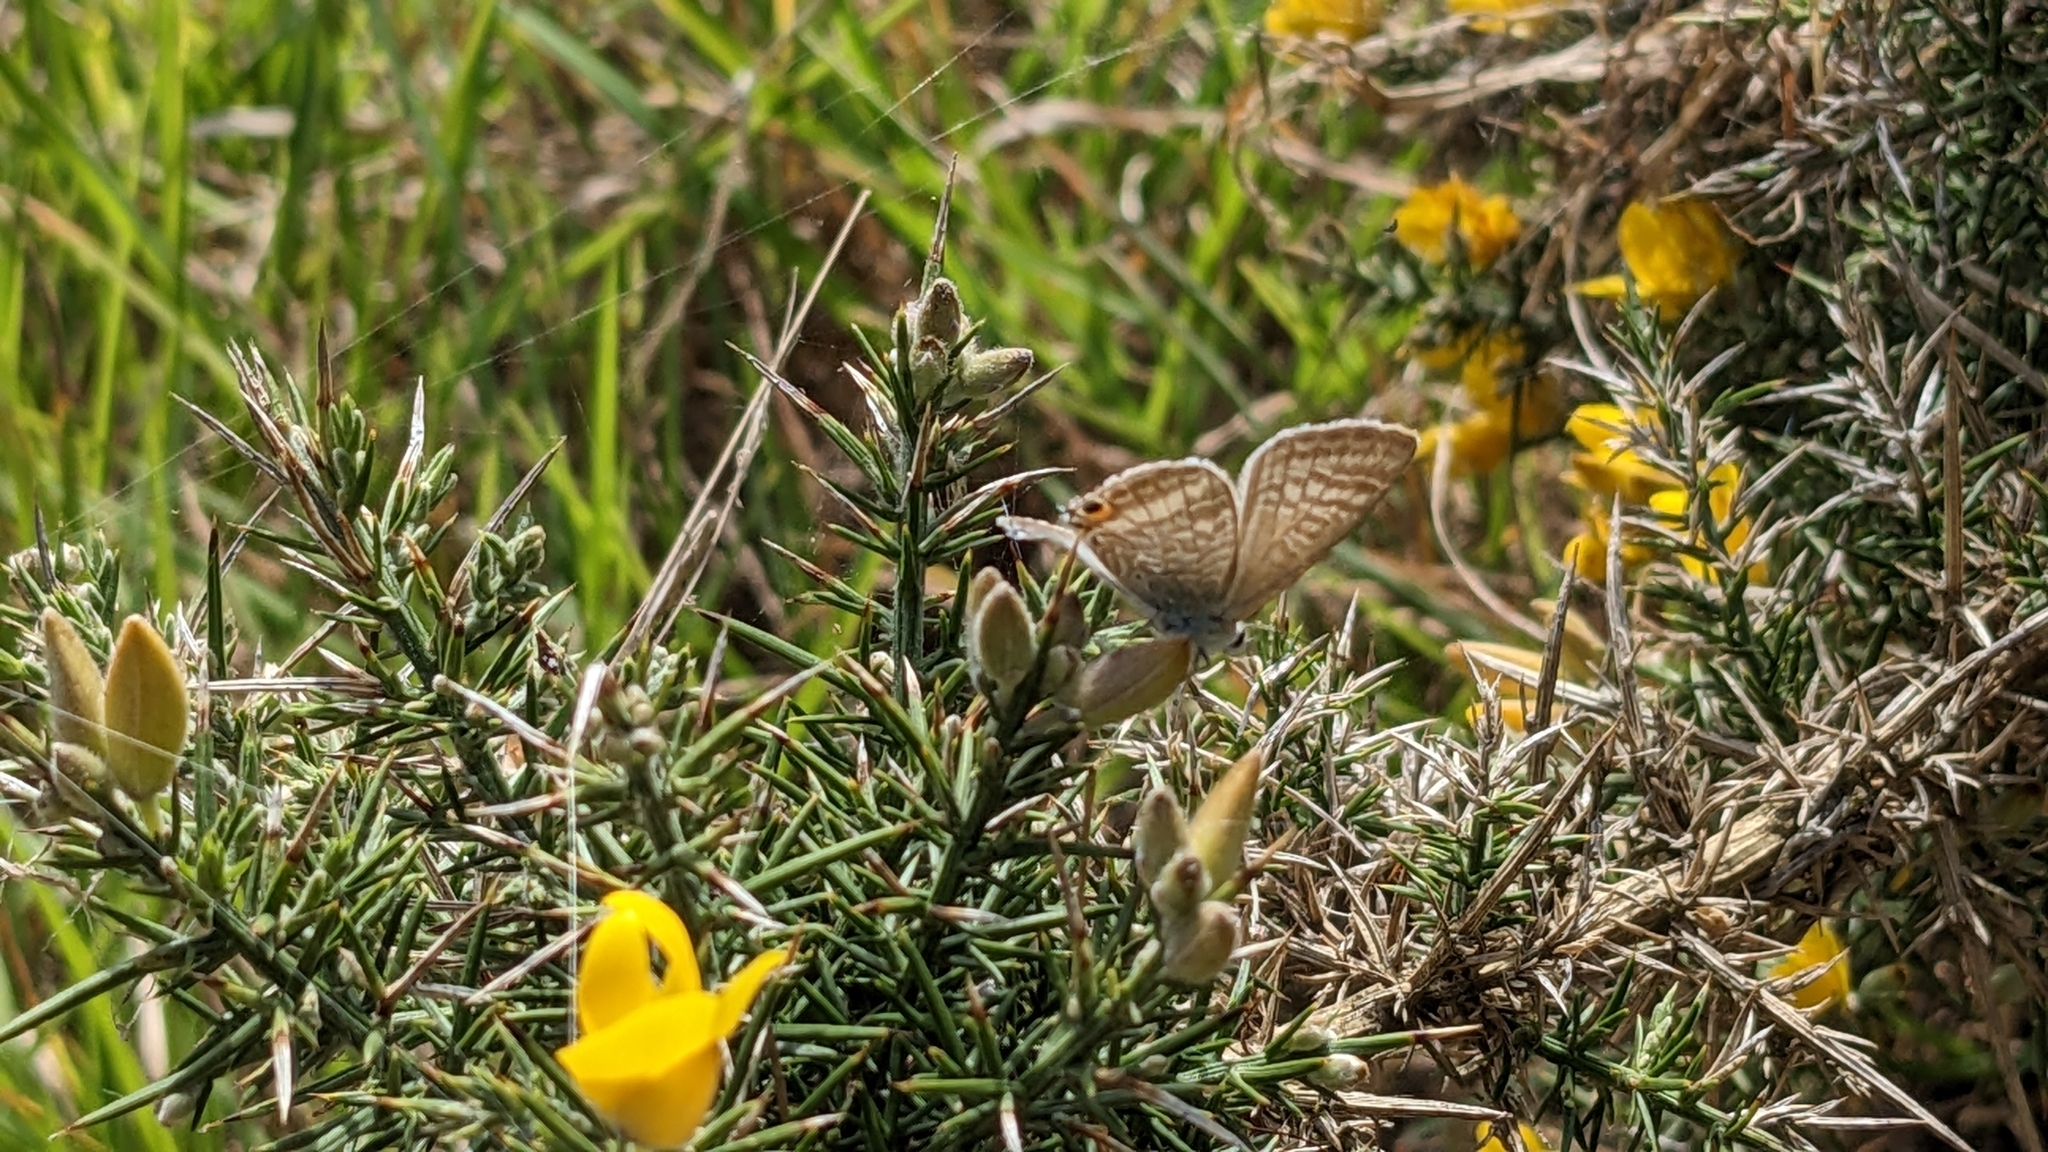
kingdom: Animalia
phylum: Arthropoda
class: Insecta
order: Lepidoptera
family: Lycaenidae
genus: Lampides
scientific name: Lampides boeticus
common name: Long-tailed blue
